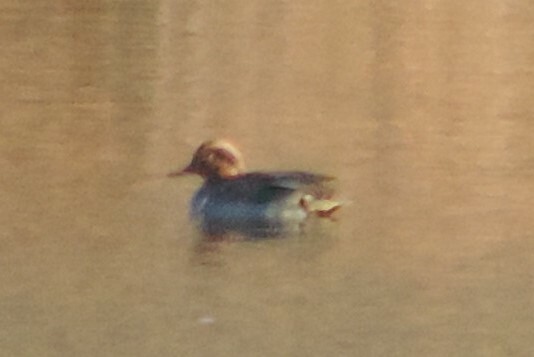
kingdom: Animalia
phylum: Chordata
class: Aves
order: Anseriformes
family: Anatidae
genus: Anas
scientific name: Anas carolinensis
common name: Green-winged teal
